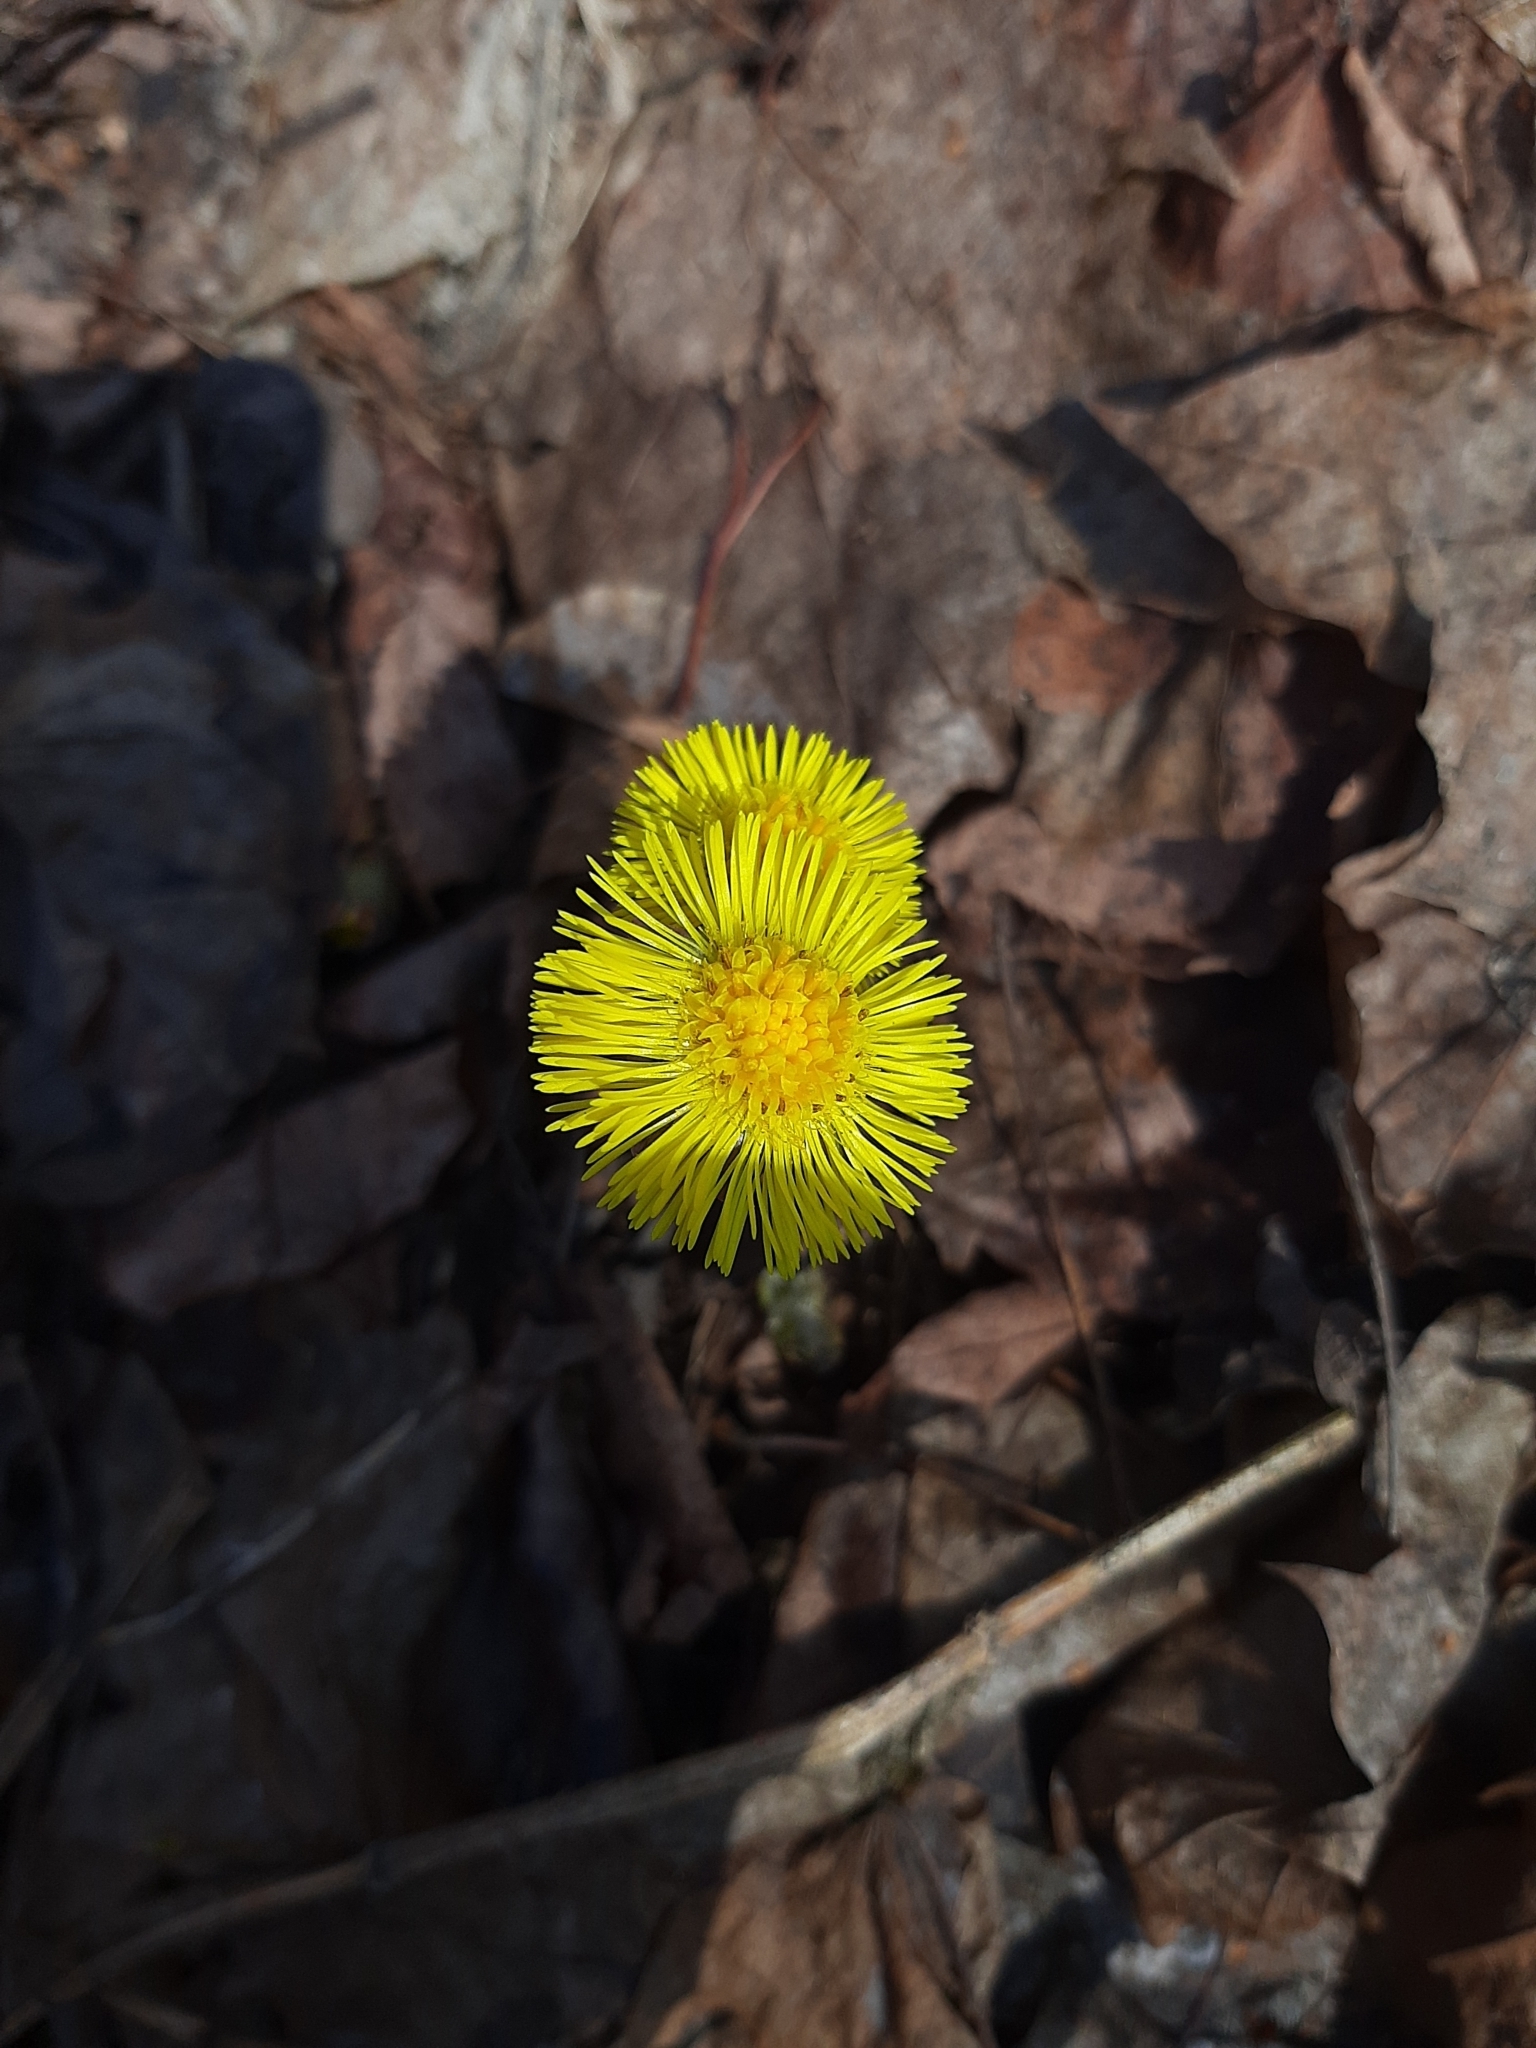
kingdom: Plantae
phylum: Tracheophyta
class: Magnoliopsida
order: Asterales
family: Asteraceae
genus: Tussilago
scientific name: Tussilago farfara
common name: Coltsfoot
